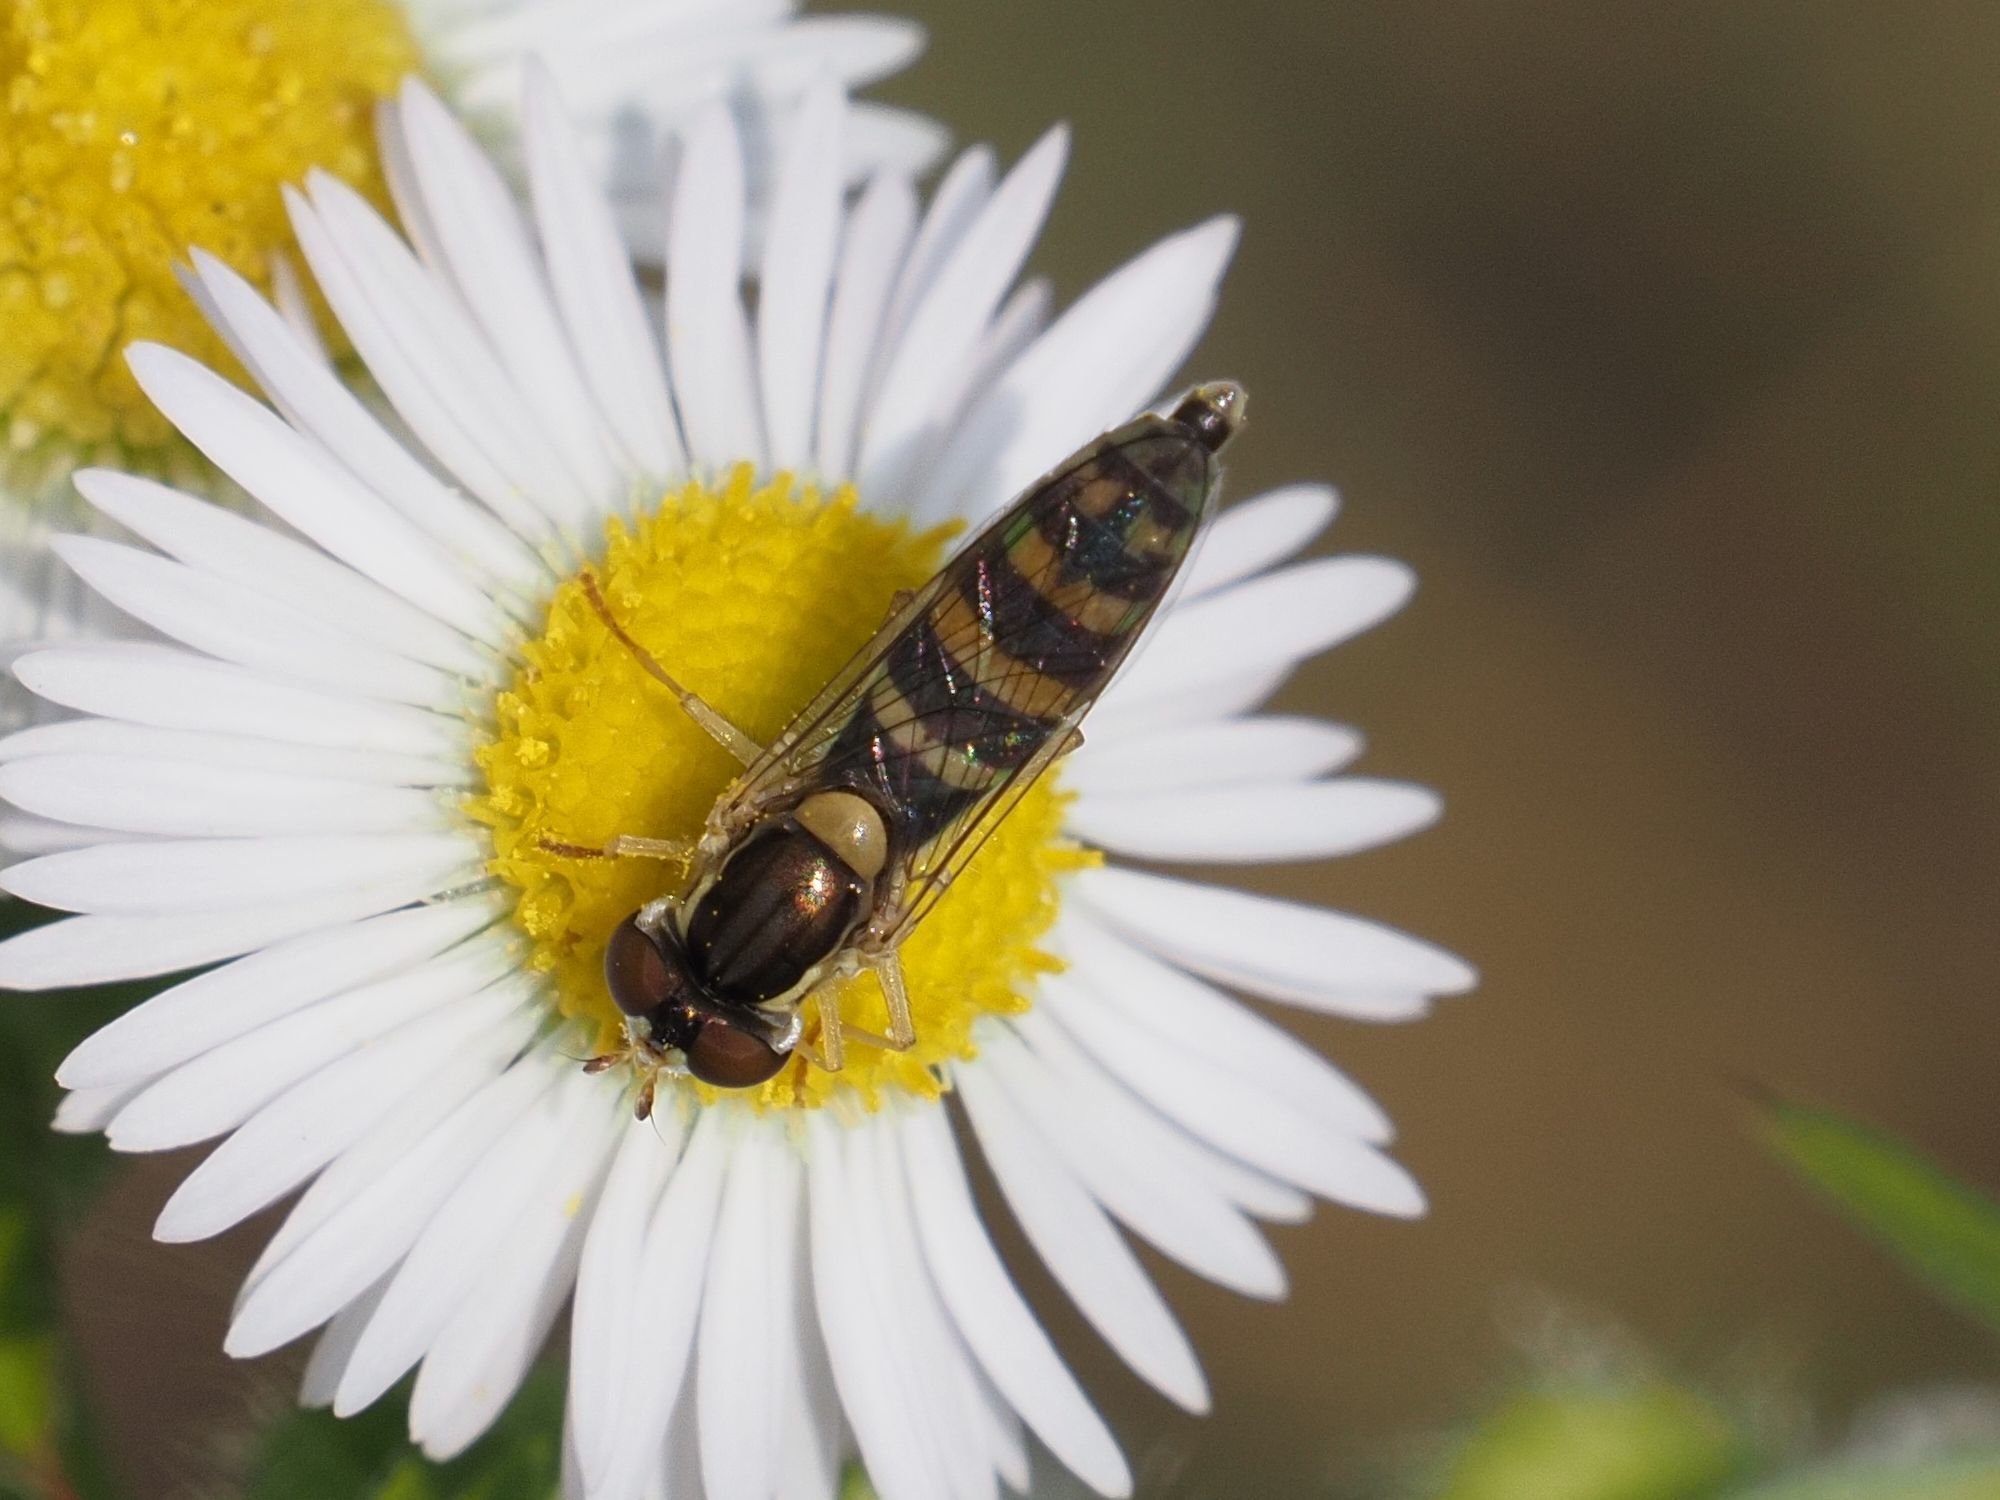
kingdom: Animalia
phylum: Arthropoda
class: Insecta
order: Diptera
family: Syrphidae
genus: Sphaerophoria
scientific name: Sphaerophoria
